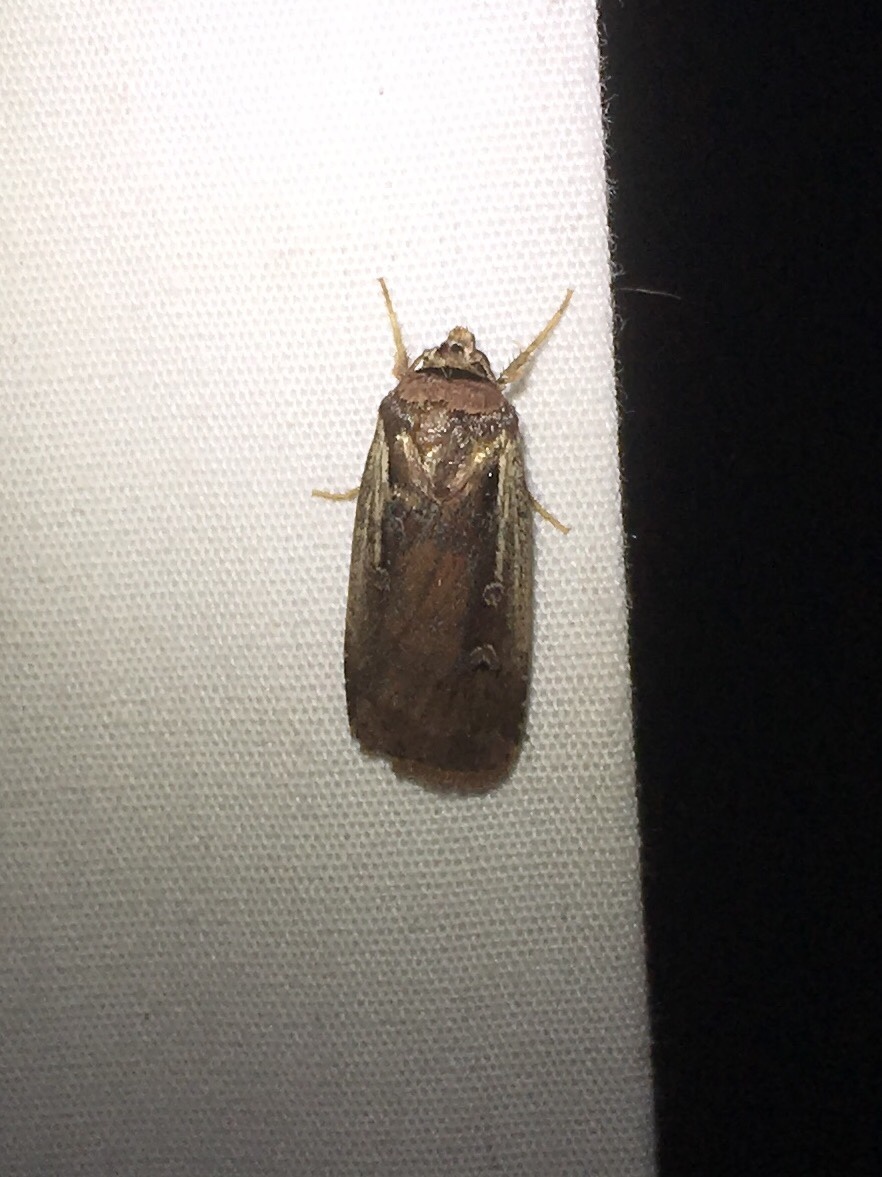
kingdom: Animalia
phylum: Arthropoda
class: Insecta
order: Lepidoptera
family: Noctuidae
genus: Ochropleura
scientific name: Ochropleura implecta
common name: Flame-shouldered dart
